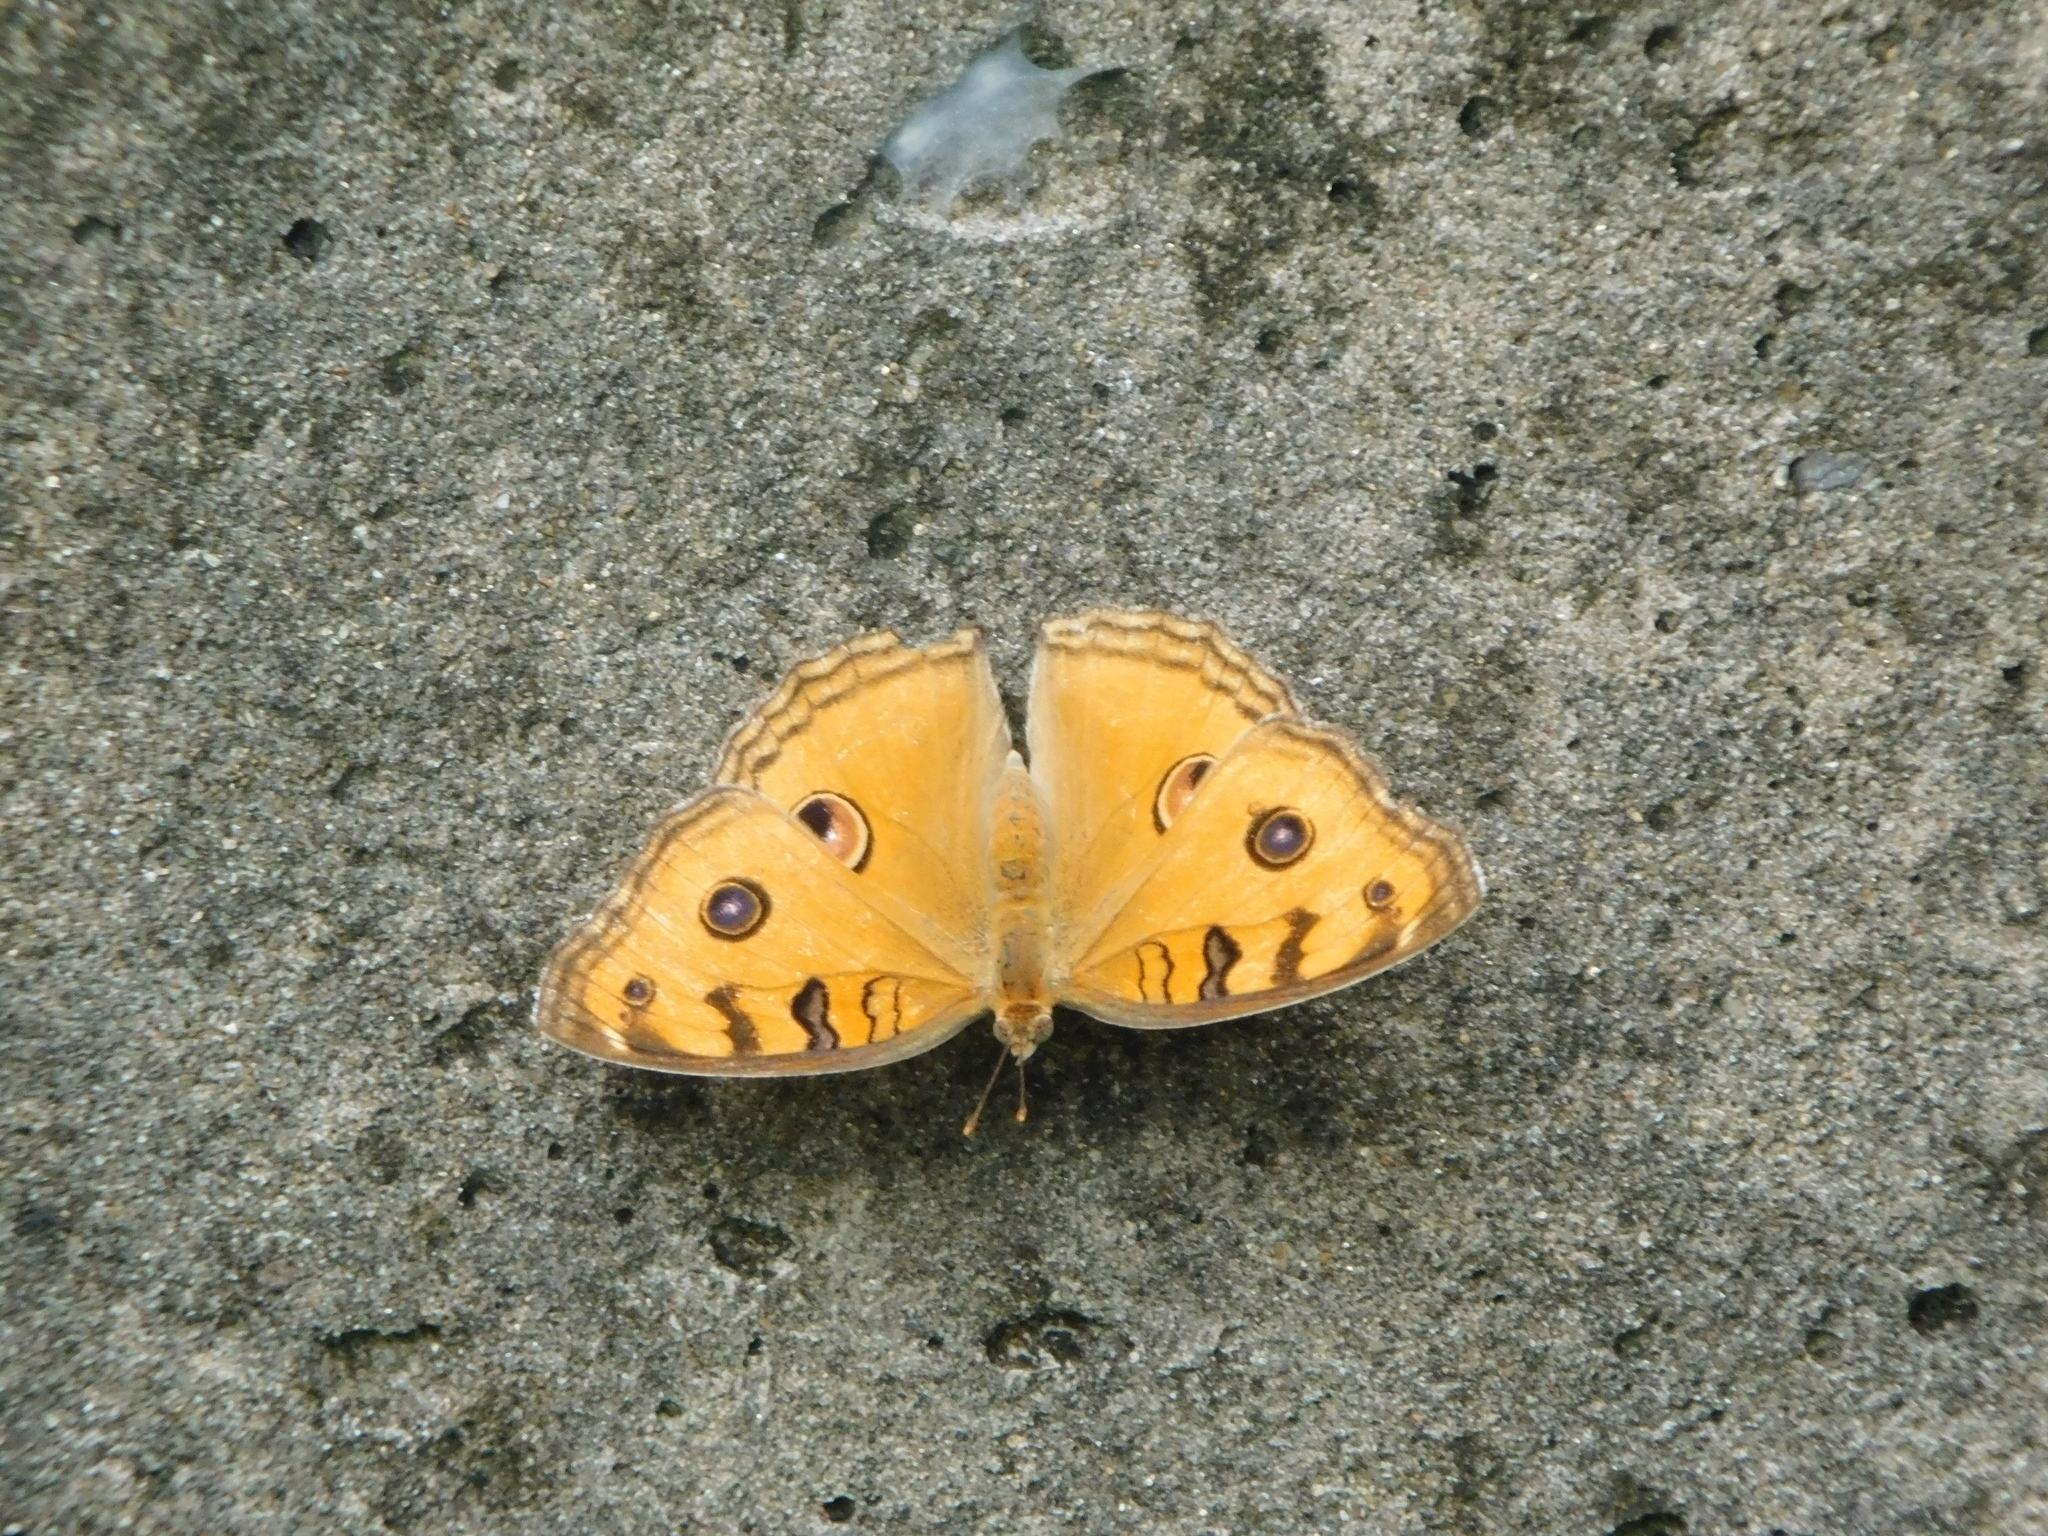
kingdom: Animalia
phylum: Arthropoda
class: Insecta
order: Lepidoptera
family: Nymphalidae
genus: Junonia
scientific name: Junonia almana
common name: Peacock pansy
